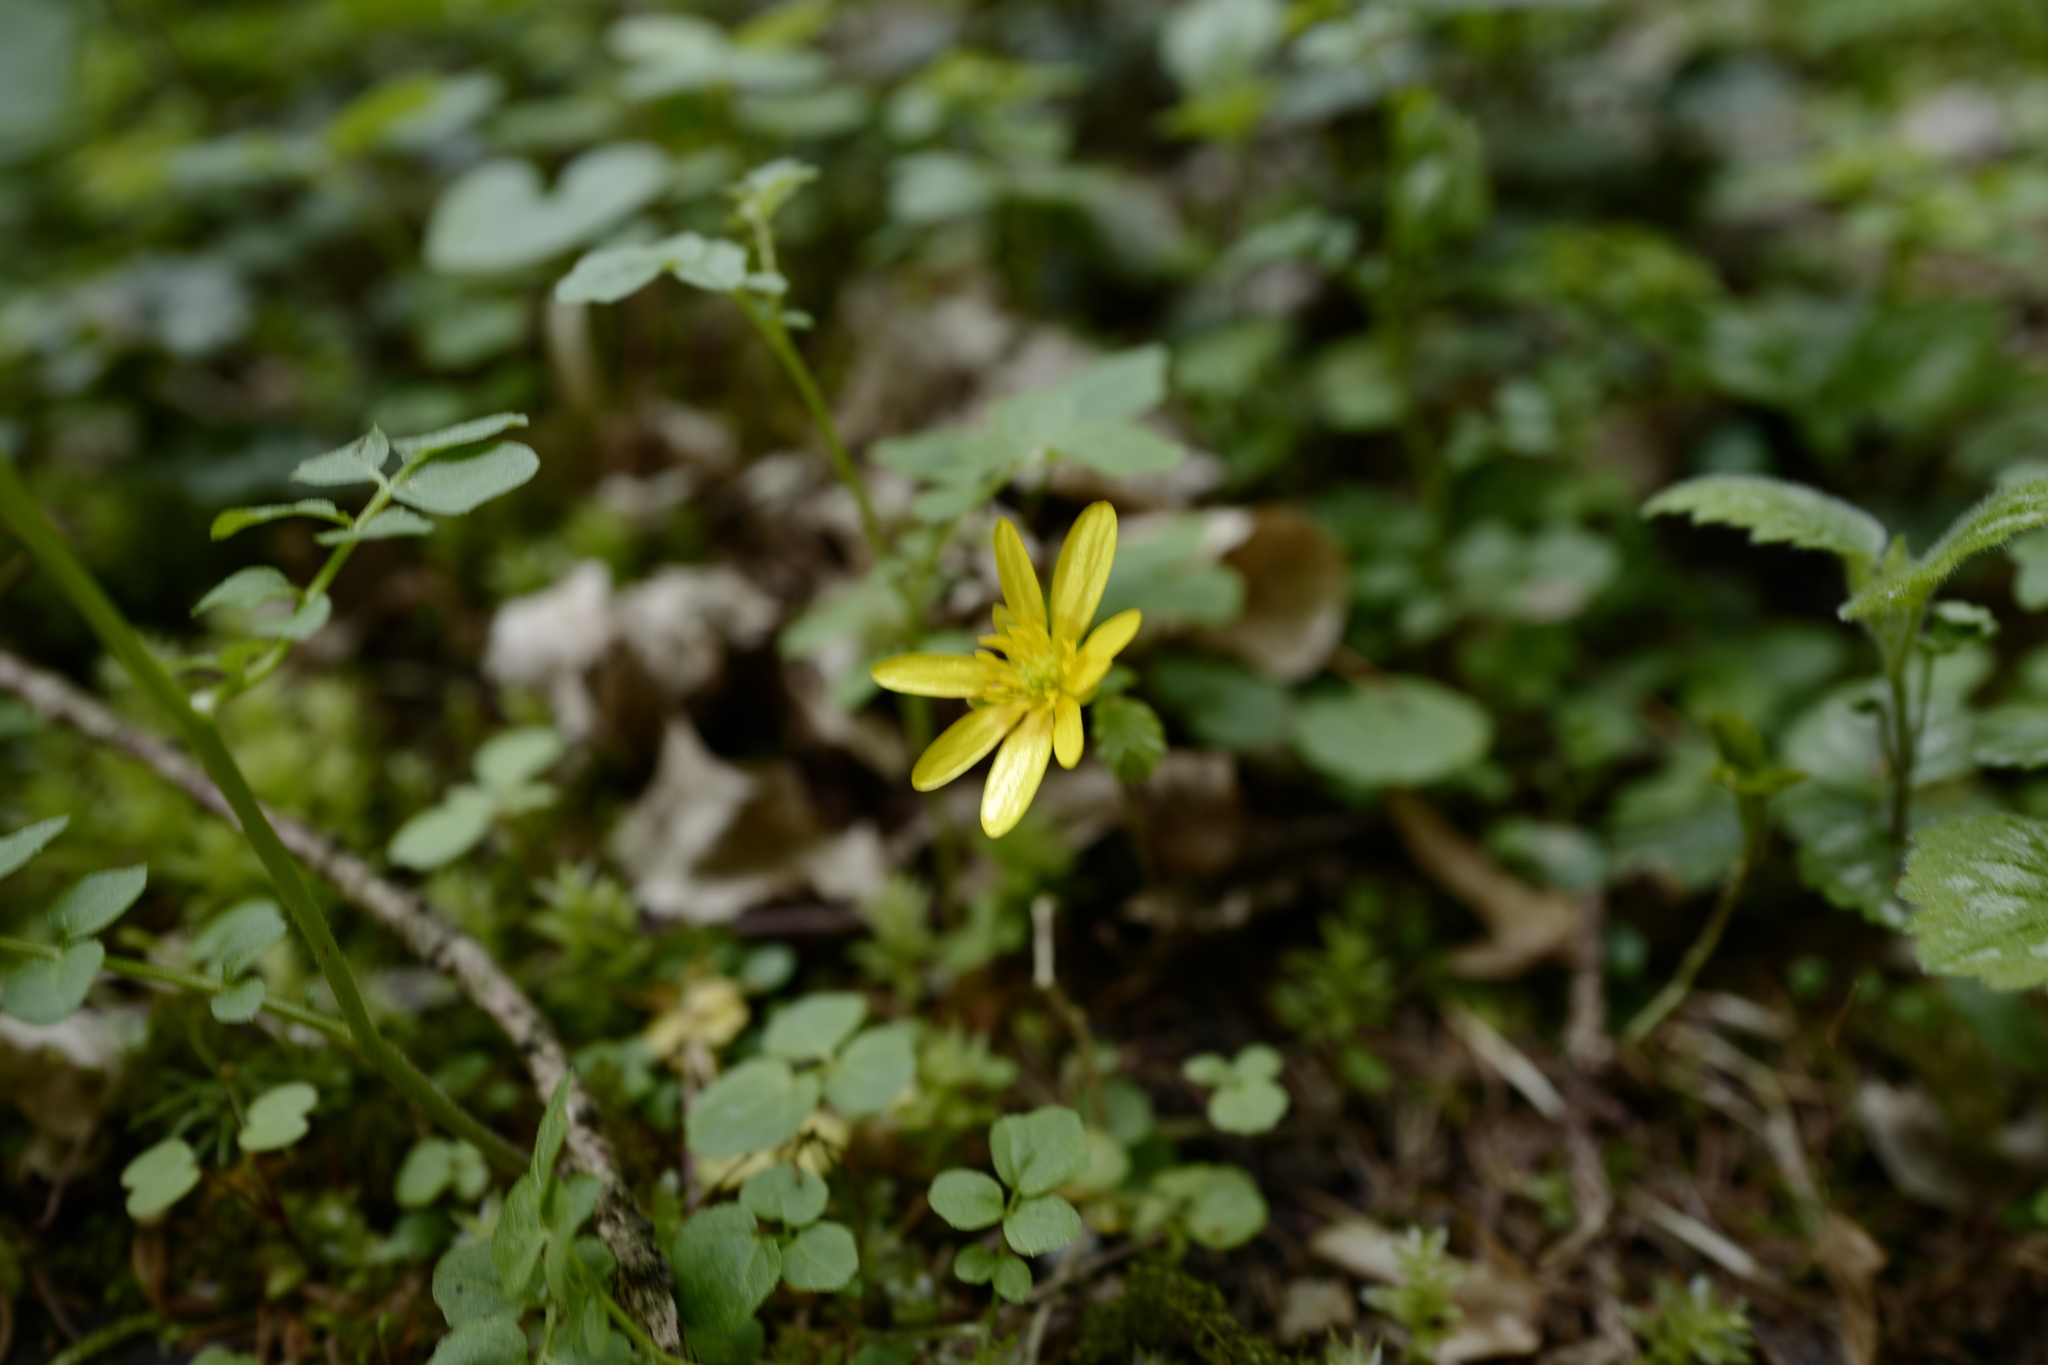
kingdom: Plantae
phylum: Tracheophyta
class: Magnoliopsida
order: Ranunculales
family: Ranunculaceae
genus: Ficaria
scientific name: Ficaria verna
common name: Lesser celandine
